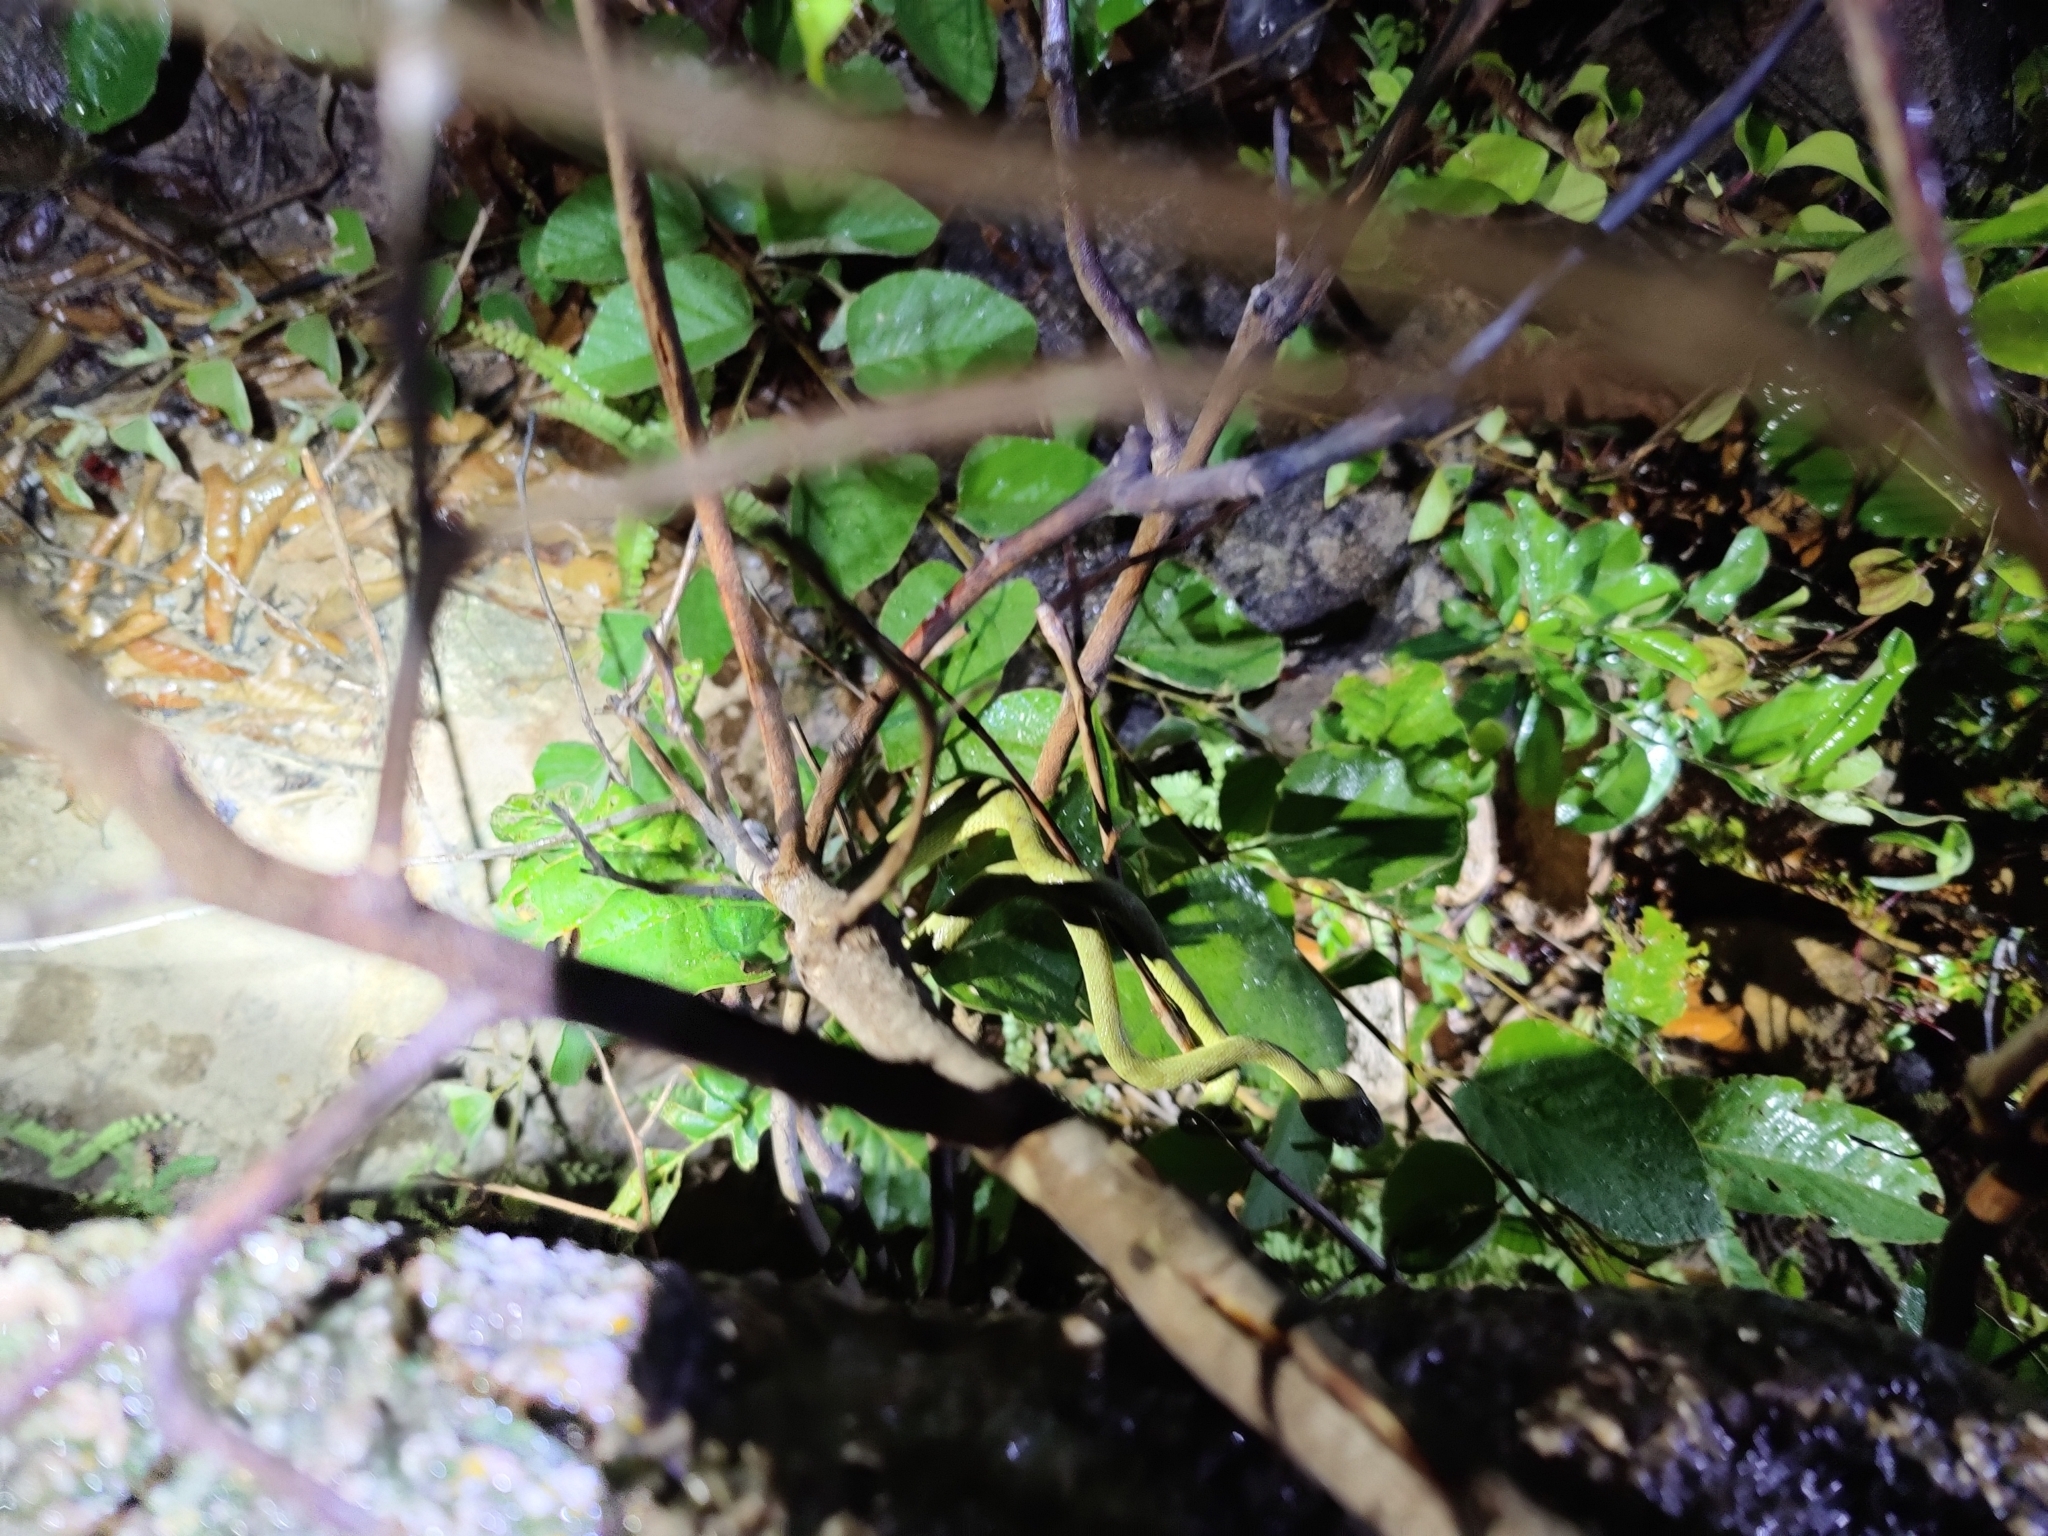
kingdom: Animalia
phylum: Chordata
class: Squamata
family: Viperidae
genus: Craspedocephalus
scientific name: Craspedocephalus gramineus
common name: Common bamboo viper
